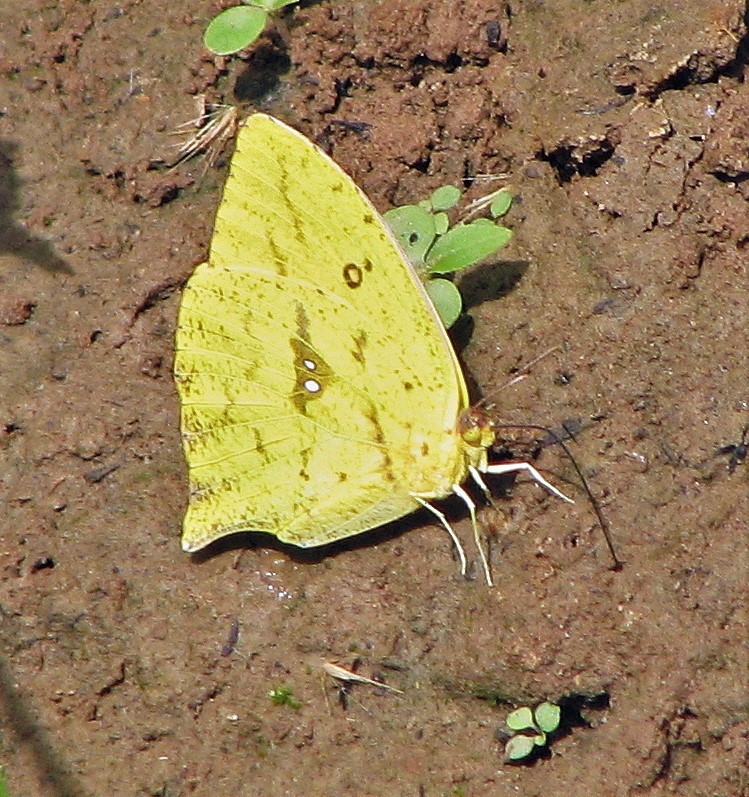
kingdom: Animalia
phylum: Arthropoda
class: Insecta
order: Lepidoptera
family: Pieridae
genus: Phoebis
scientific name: Phoebis neocypris
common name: Tailed sulphur
